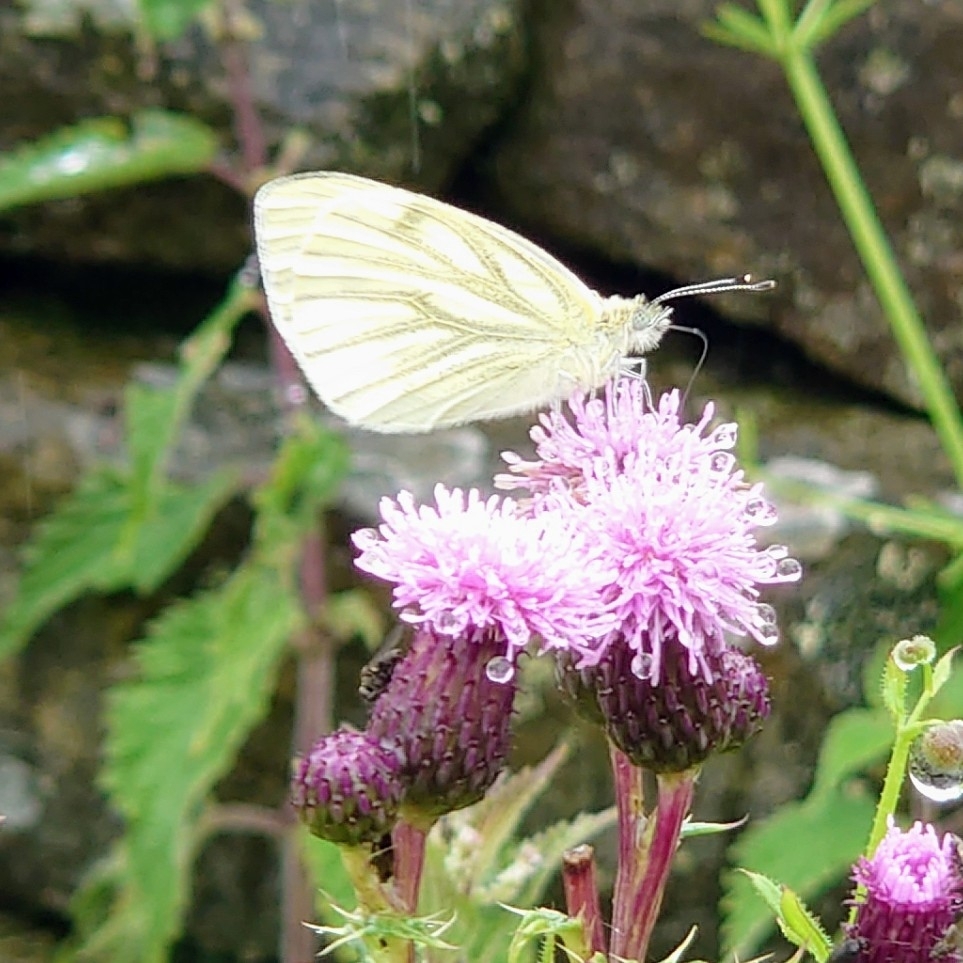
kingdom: Animalia
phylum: Arthropoda
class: Insecta
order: Lepidoptera
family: Pieridae
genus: Pieris
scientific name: Pieris napi
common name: Green-veined white
